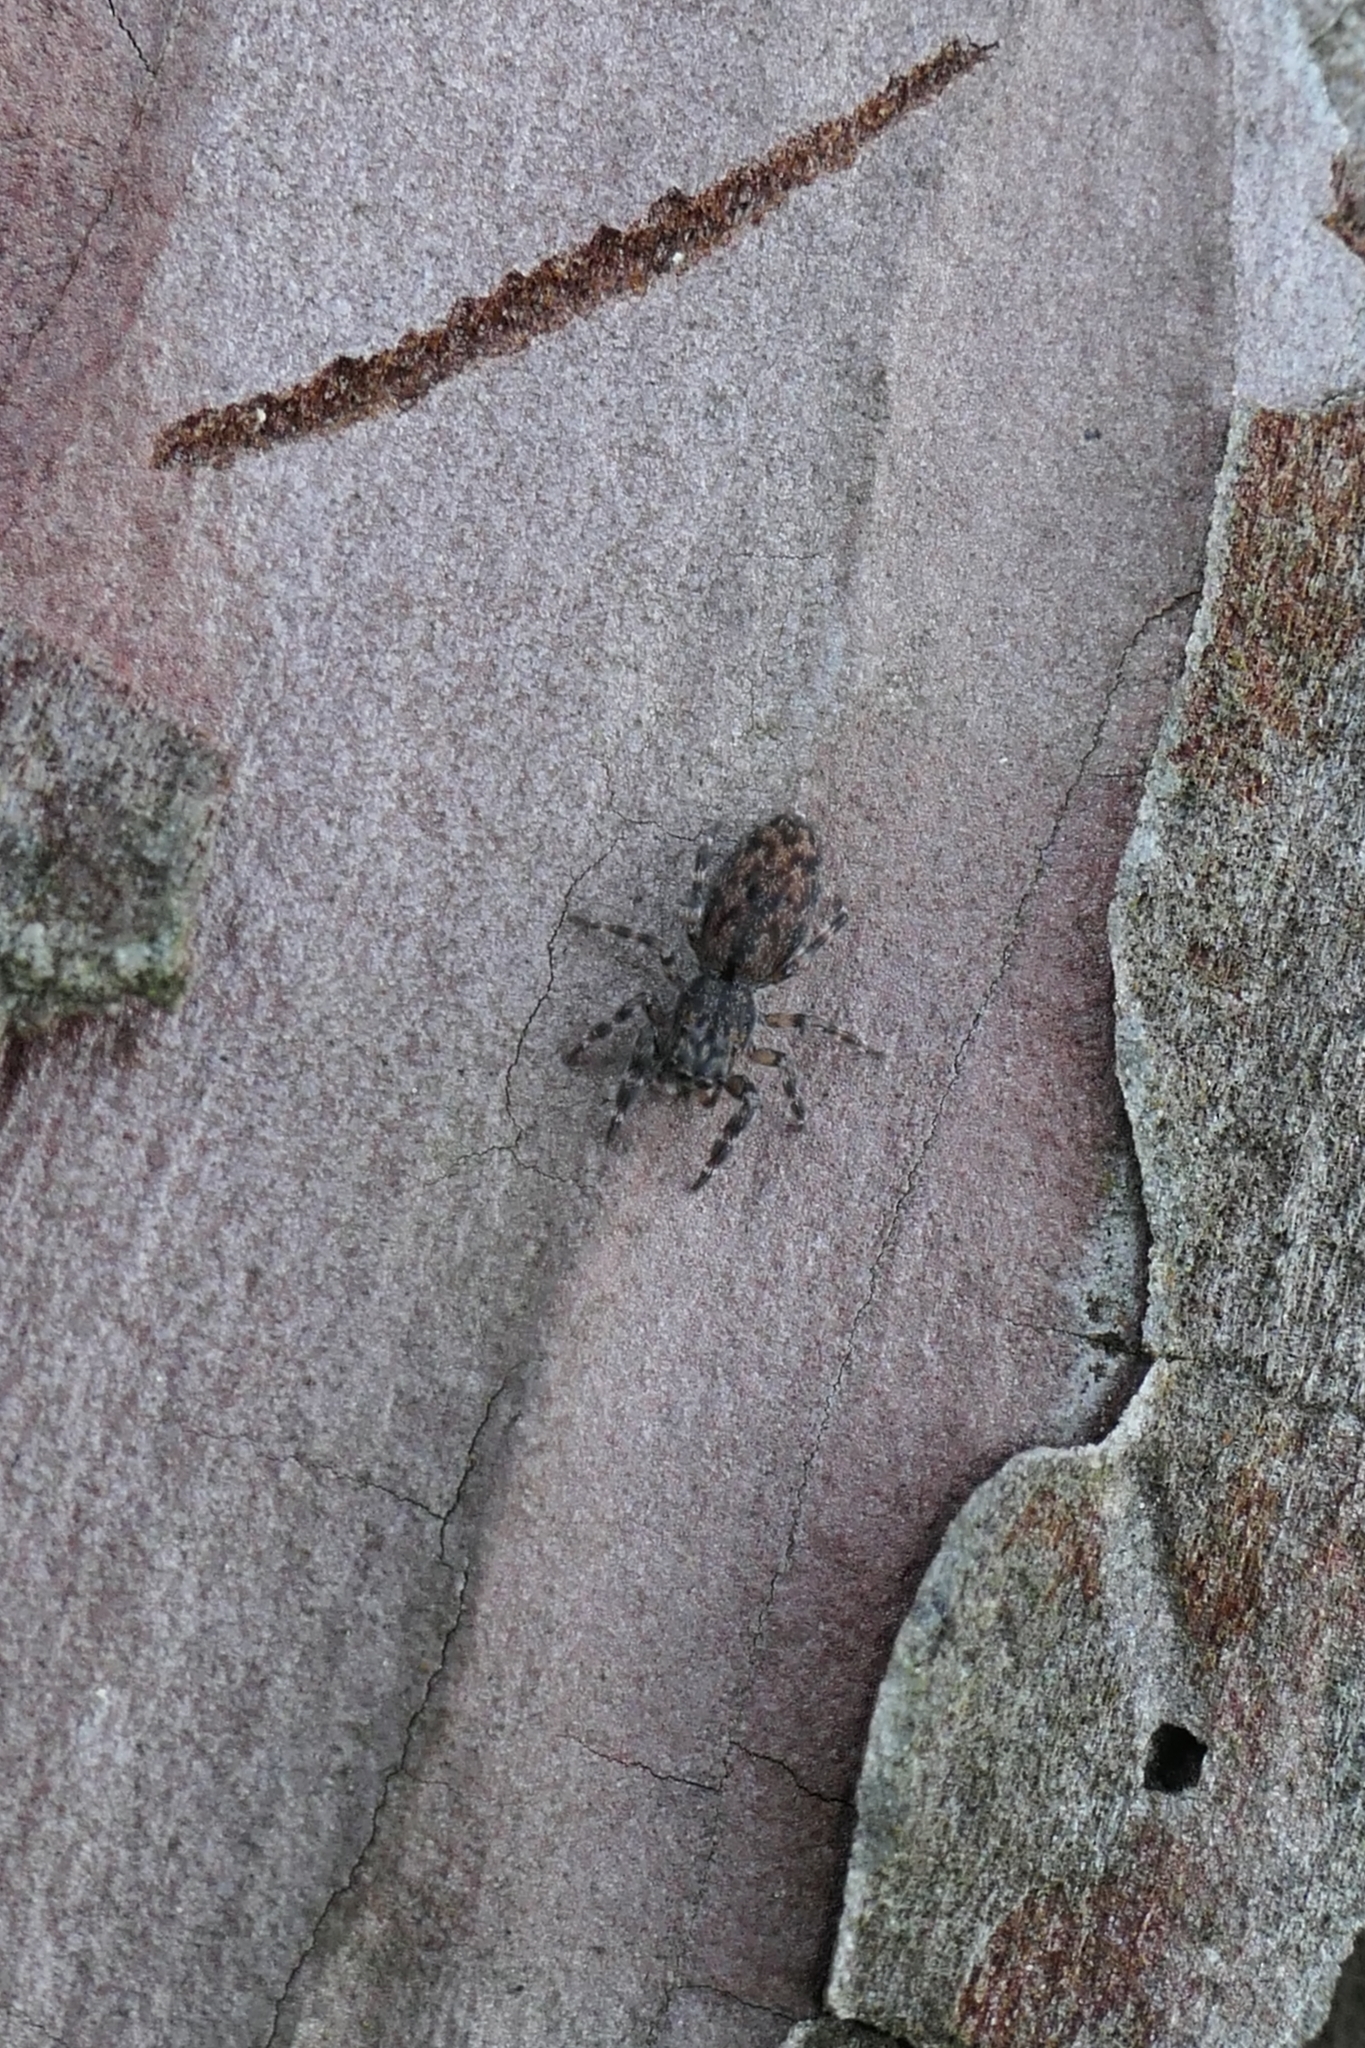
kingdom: Animalia
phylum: Arthropoda
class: Arachnida
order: Araneae
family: Salticidae
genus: Adoxotoma
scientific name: Adoxotoma forsteri
